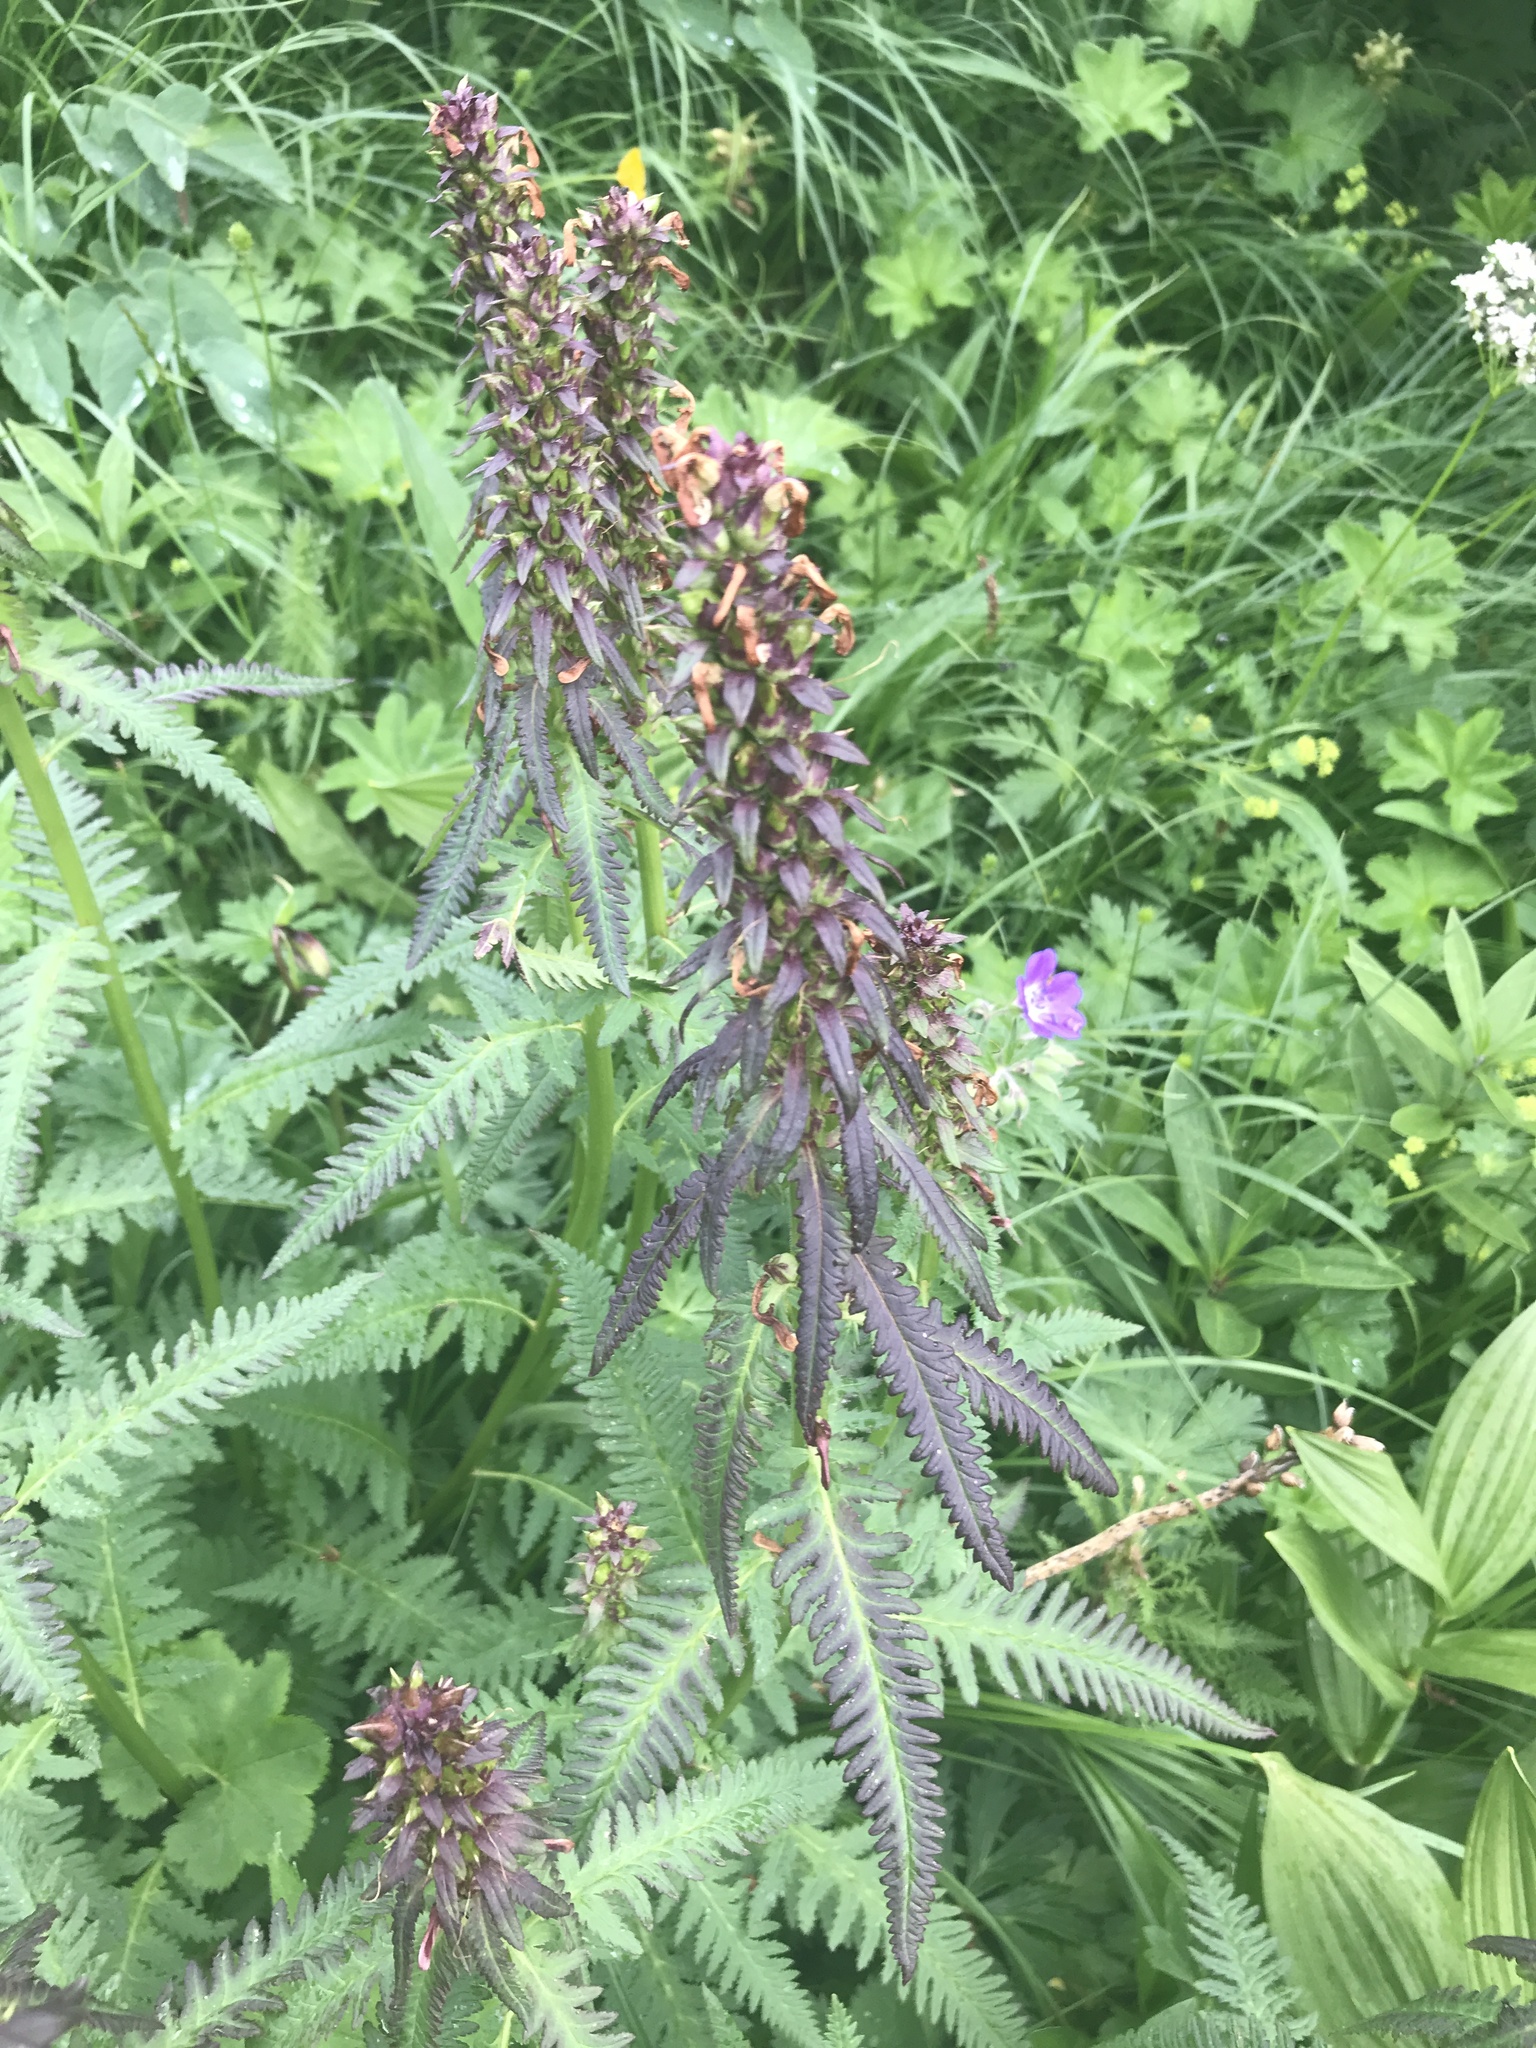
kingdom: Plantae
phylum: Tracheophyta
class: Magnoliopsida
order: Lamiales
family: Orobanchaceae
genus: Pedicularis
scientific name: Pedicularis recutita
